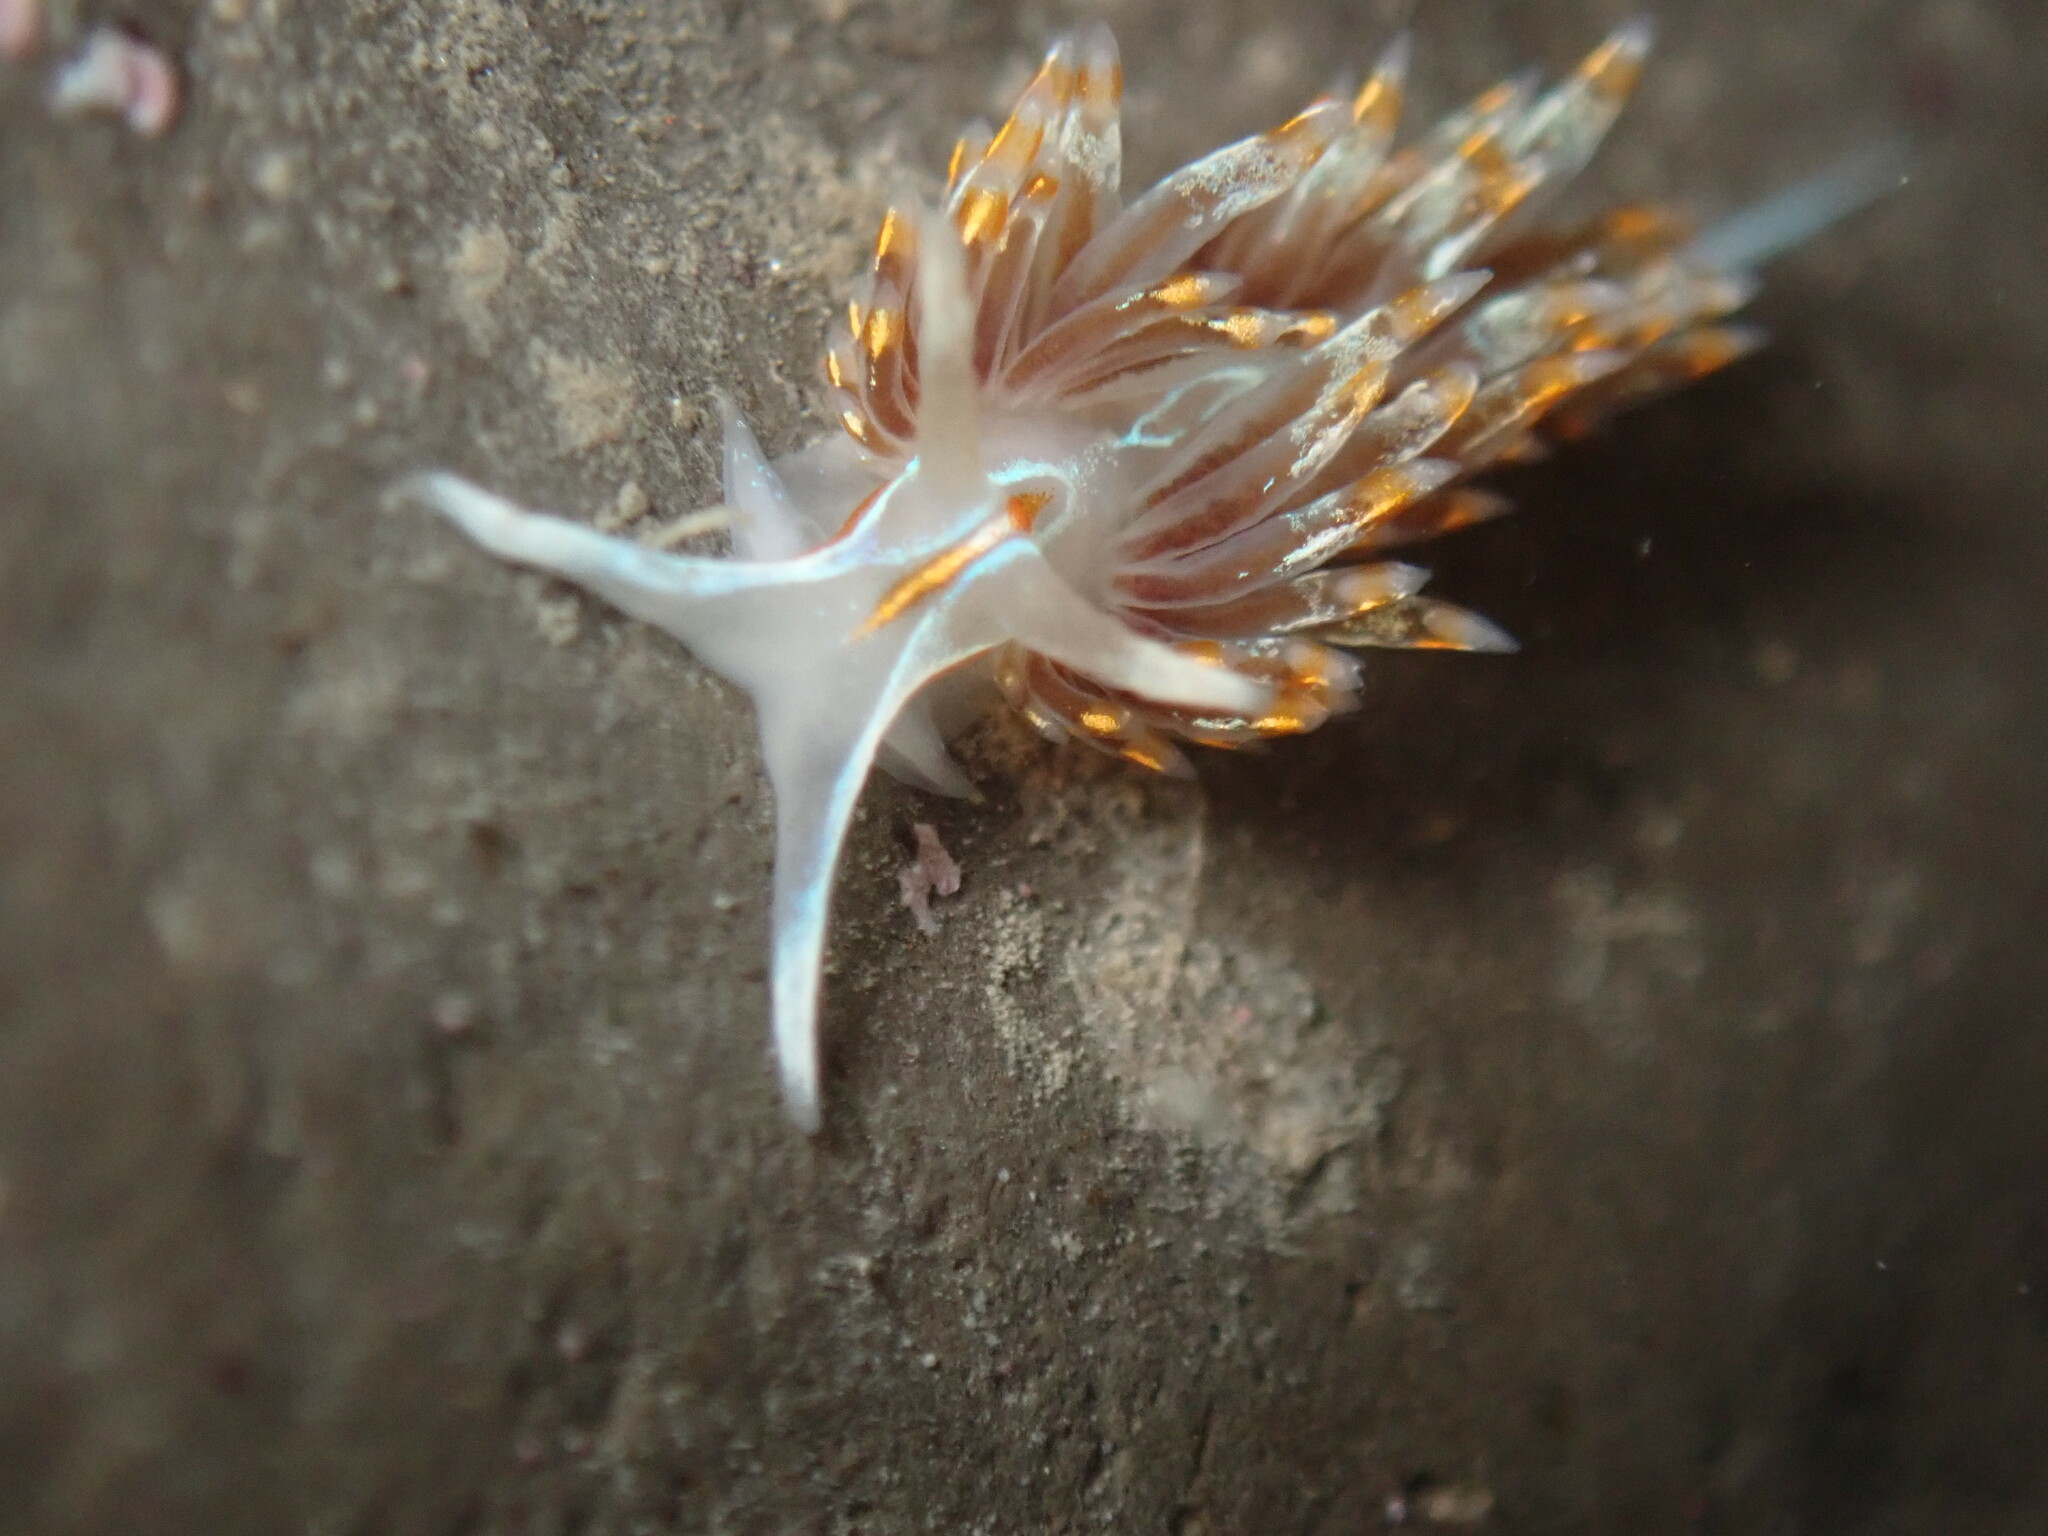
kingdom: Animalia
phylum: Mollusca
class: Gastropoda
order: Nudibranchia
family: Myrrhinidae
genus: Hermissenda
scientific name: Hermissenda opalescens
